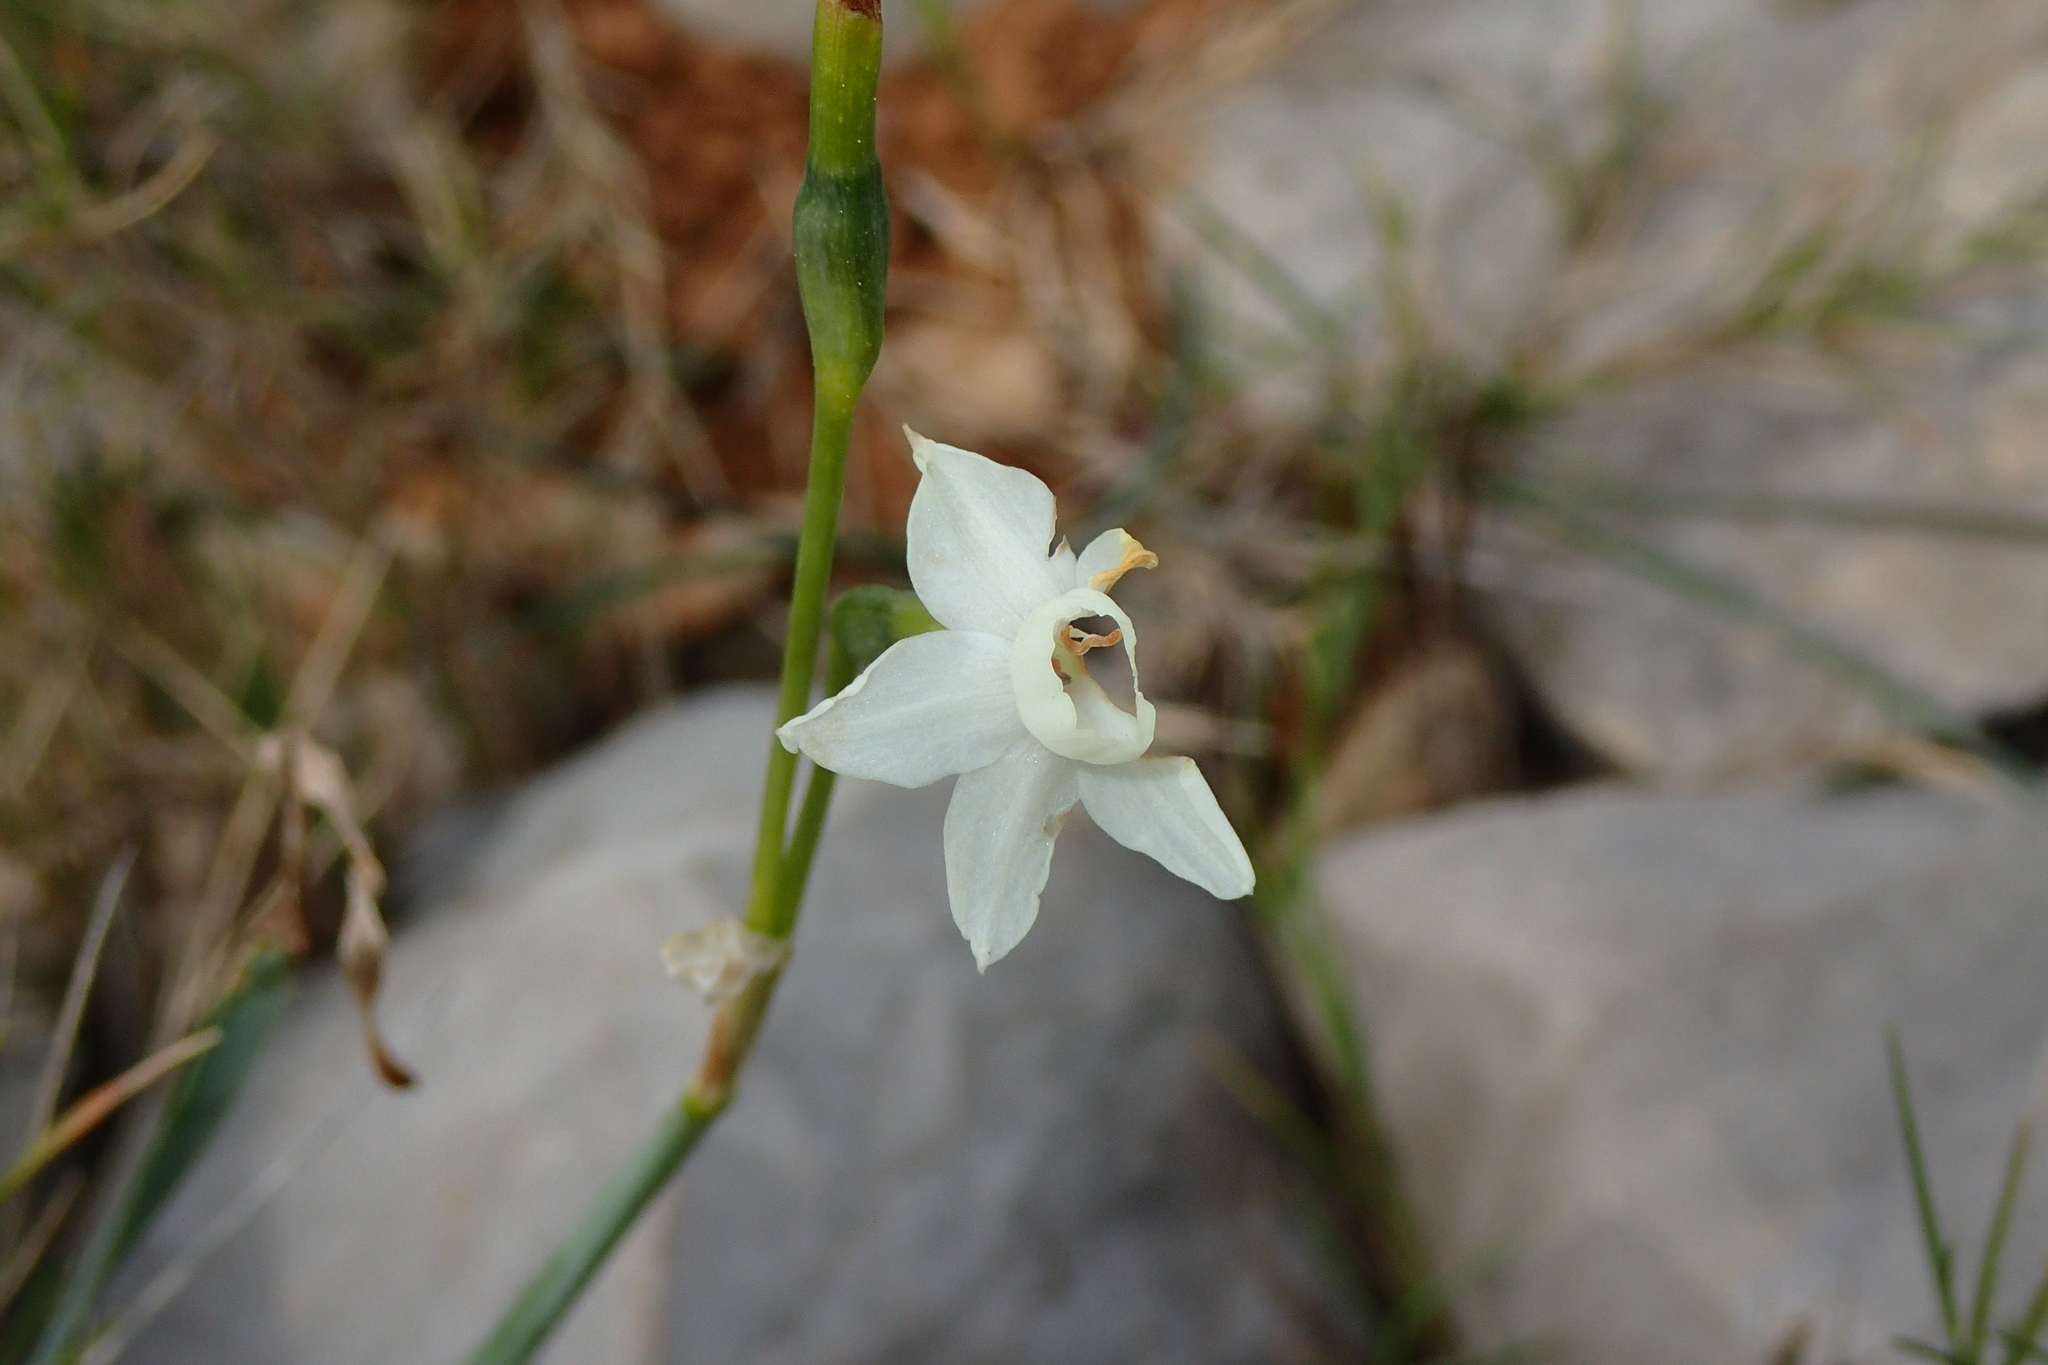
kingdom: Plantae
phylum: Tracheophyta
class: Liliopsida
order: Asparagales
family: Amaryllidaceae
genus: Narcissus
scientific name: Narcissus dubius
